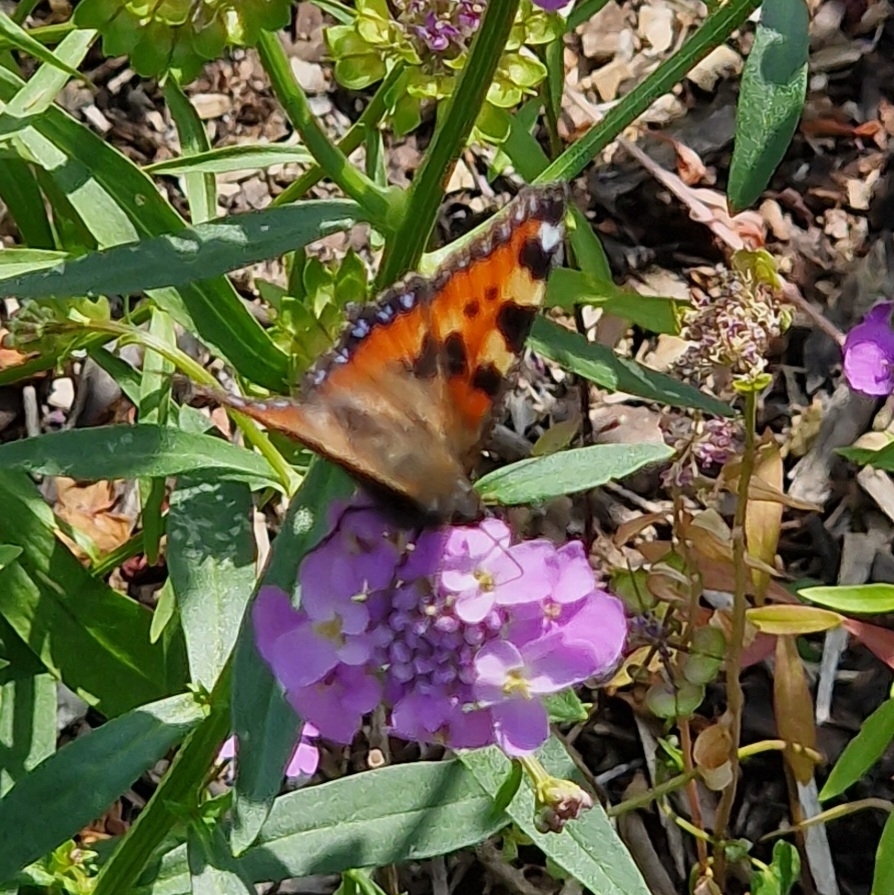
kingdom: Animalia
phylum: Arthropoda
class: Insecta
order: Lepidoptera
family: Nymphalidae
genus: Aglais
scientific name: Aglais urticae
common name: Small tortoiseshell
